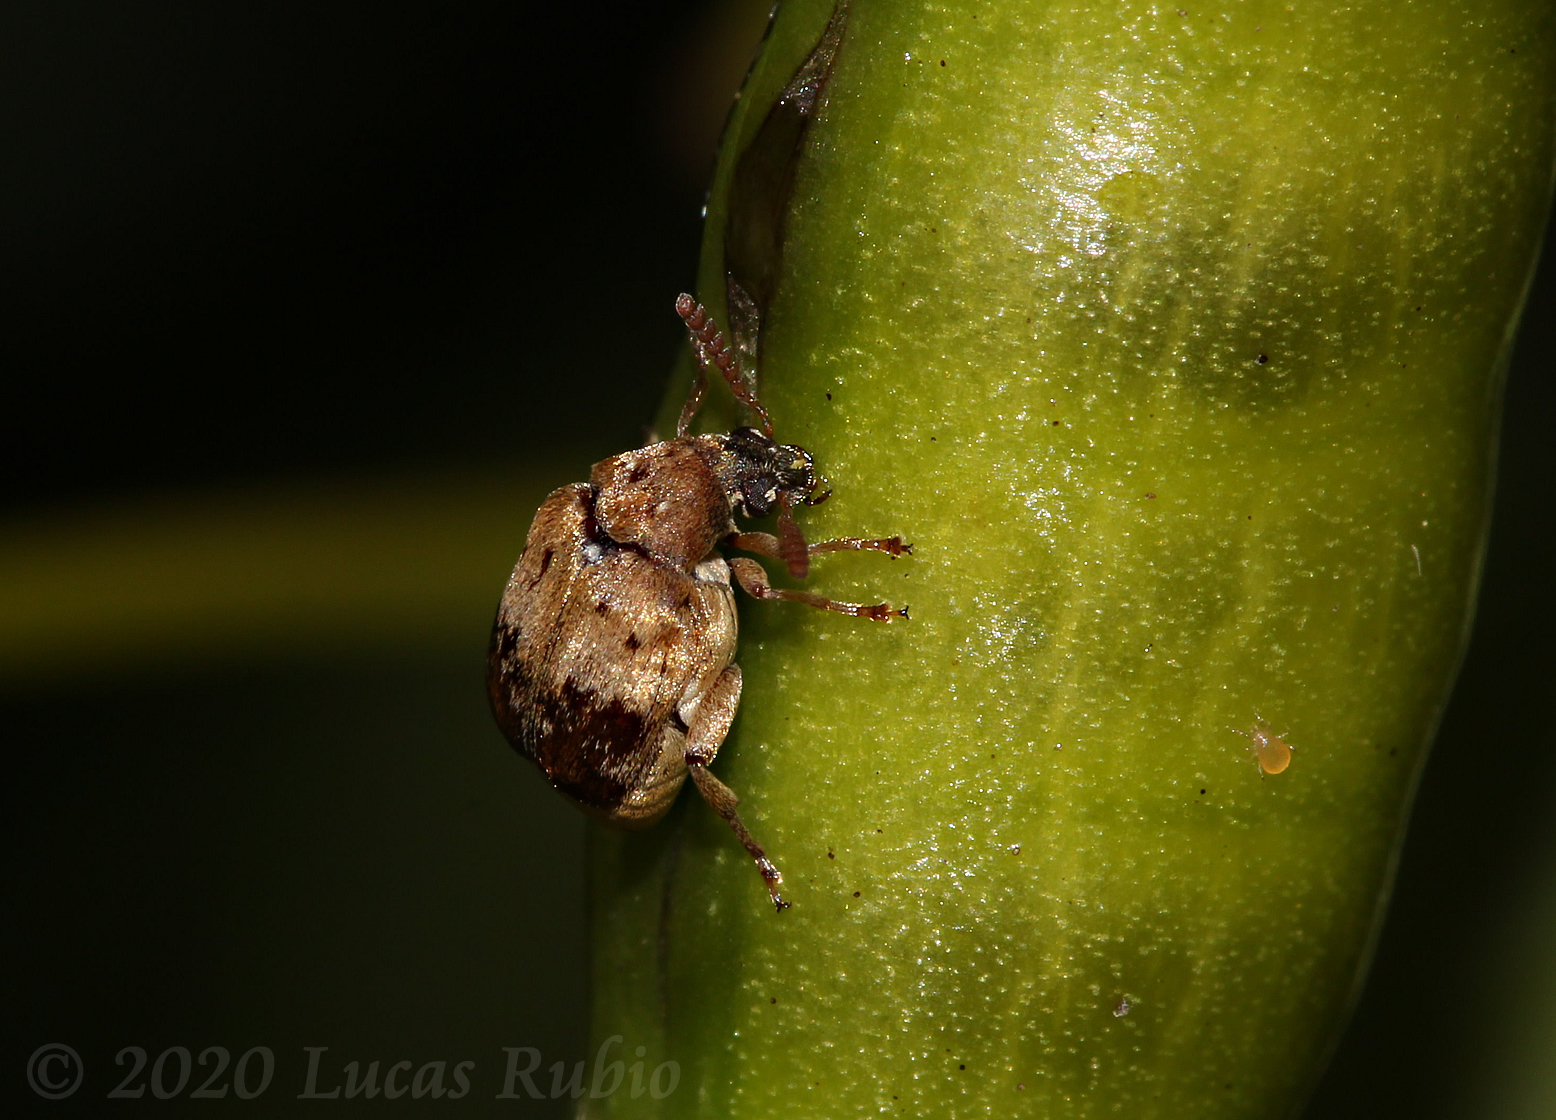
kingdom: Animalia
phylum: Arthropoda
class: Insecta
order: Coleoptera
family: Chrysomelidae
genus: Sennius
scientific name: Sennius
